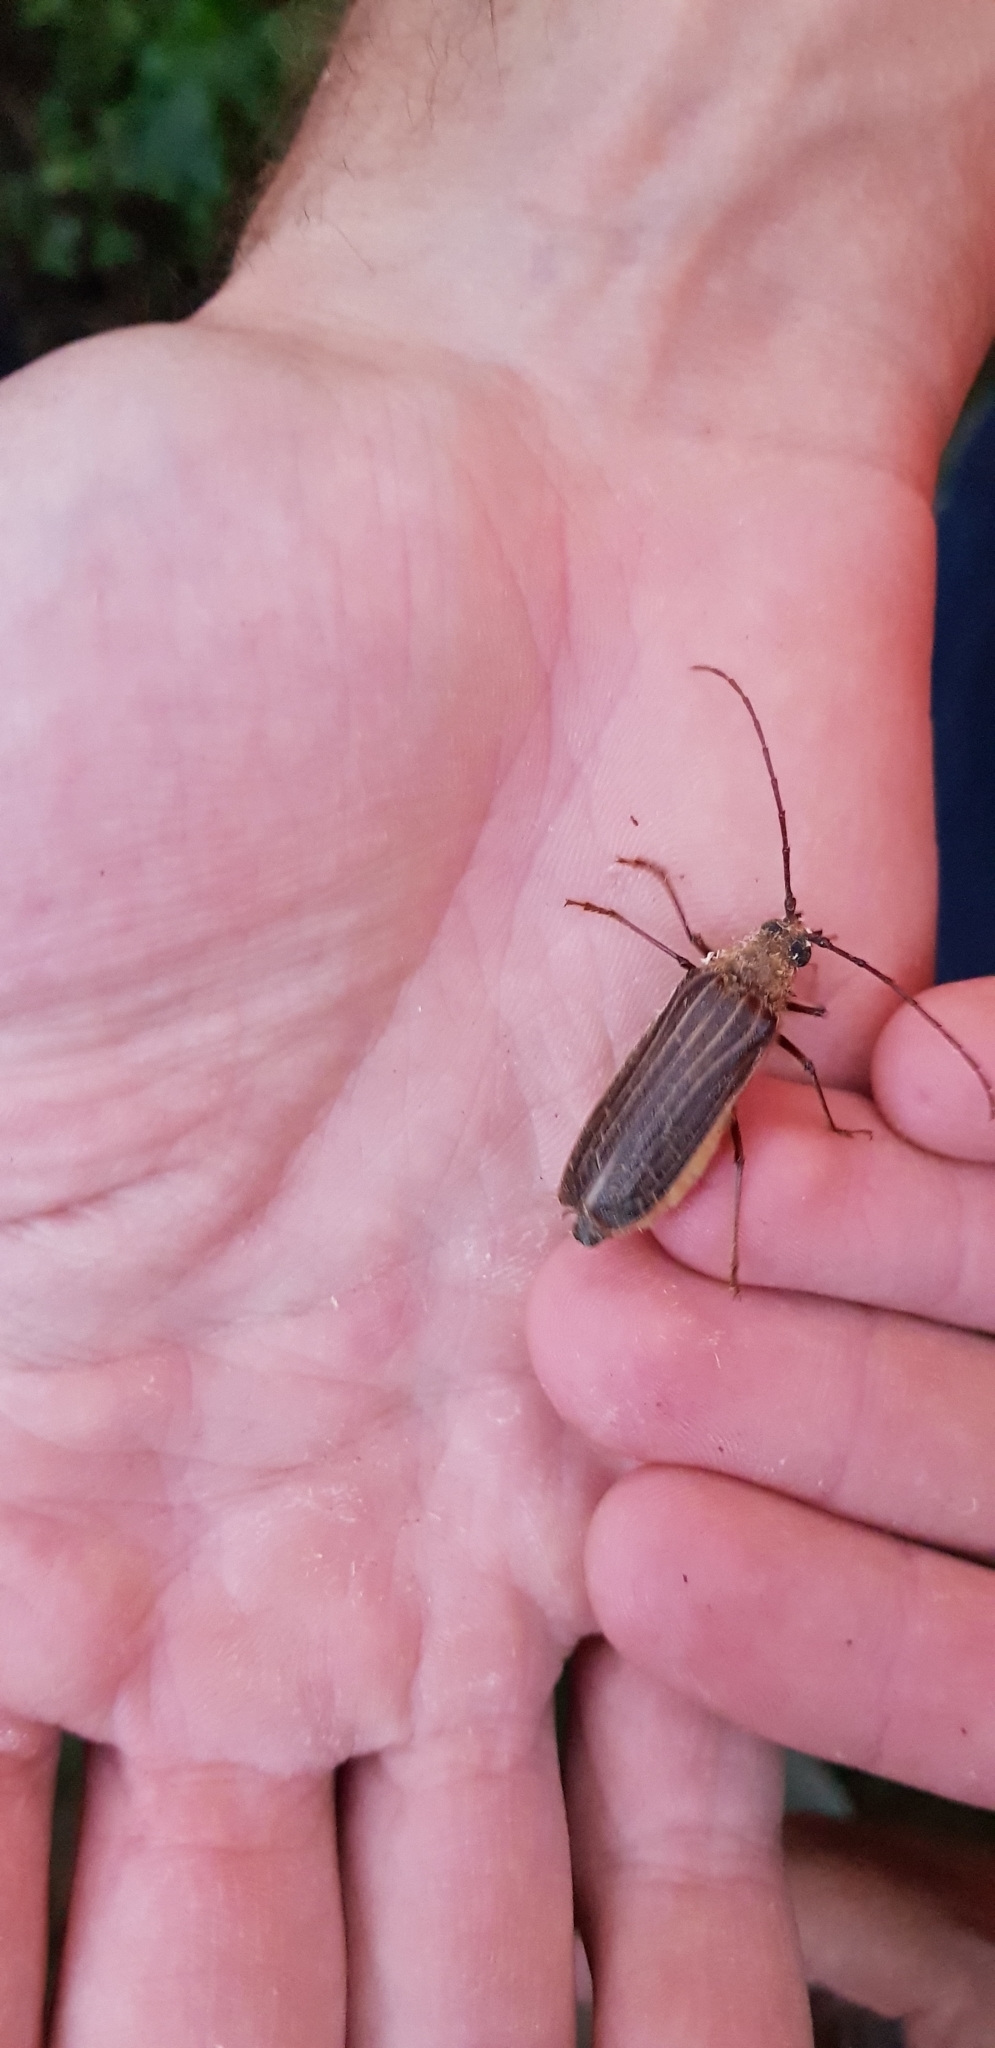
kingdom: Animalia
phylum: Arthropoda
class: Insecta
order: Coleoptera
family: Cerambycidae
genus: Prionoplus
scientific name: Prionoplus reticularis
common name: Huhu beetle
